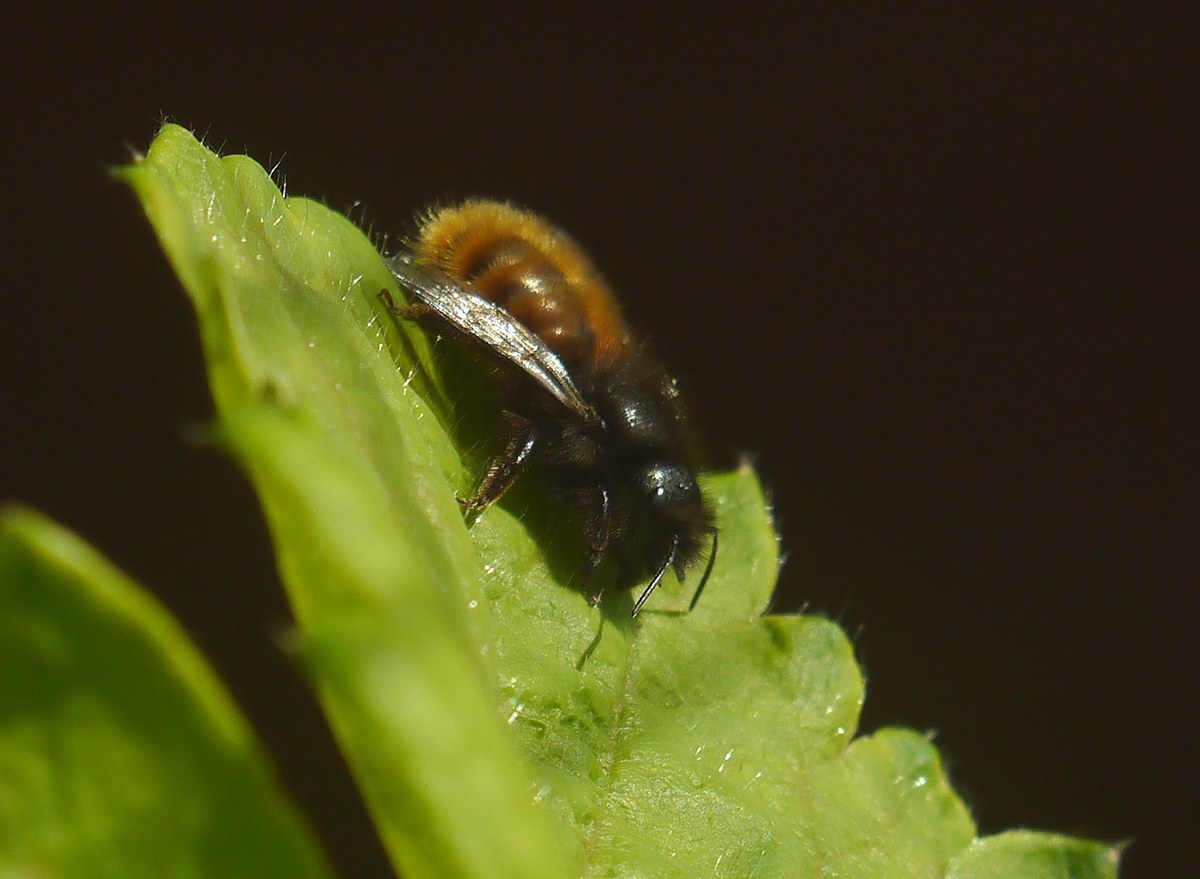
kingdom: Animalia
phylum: Arthropoda
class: Insecta
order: Hymenoptera
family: Megachilidae
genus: Osmia
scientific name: Osmia cornuta
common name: Mason bee
